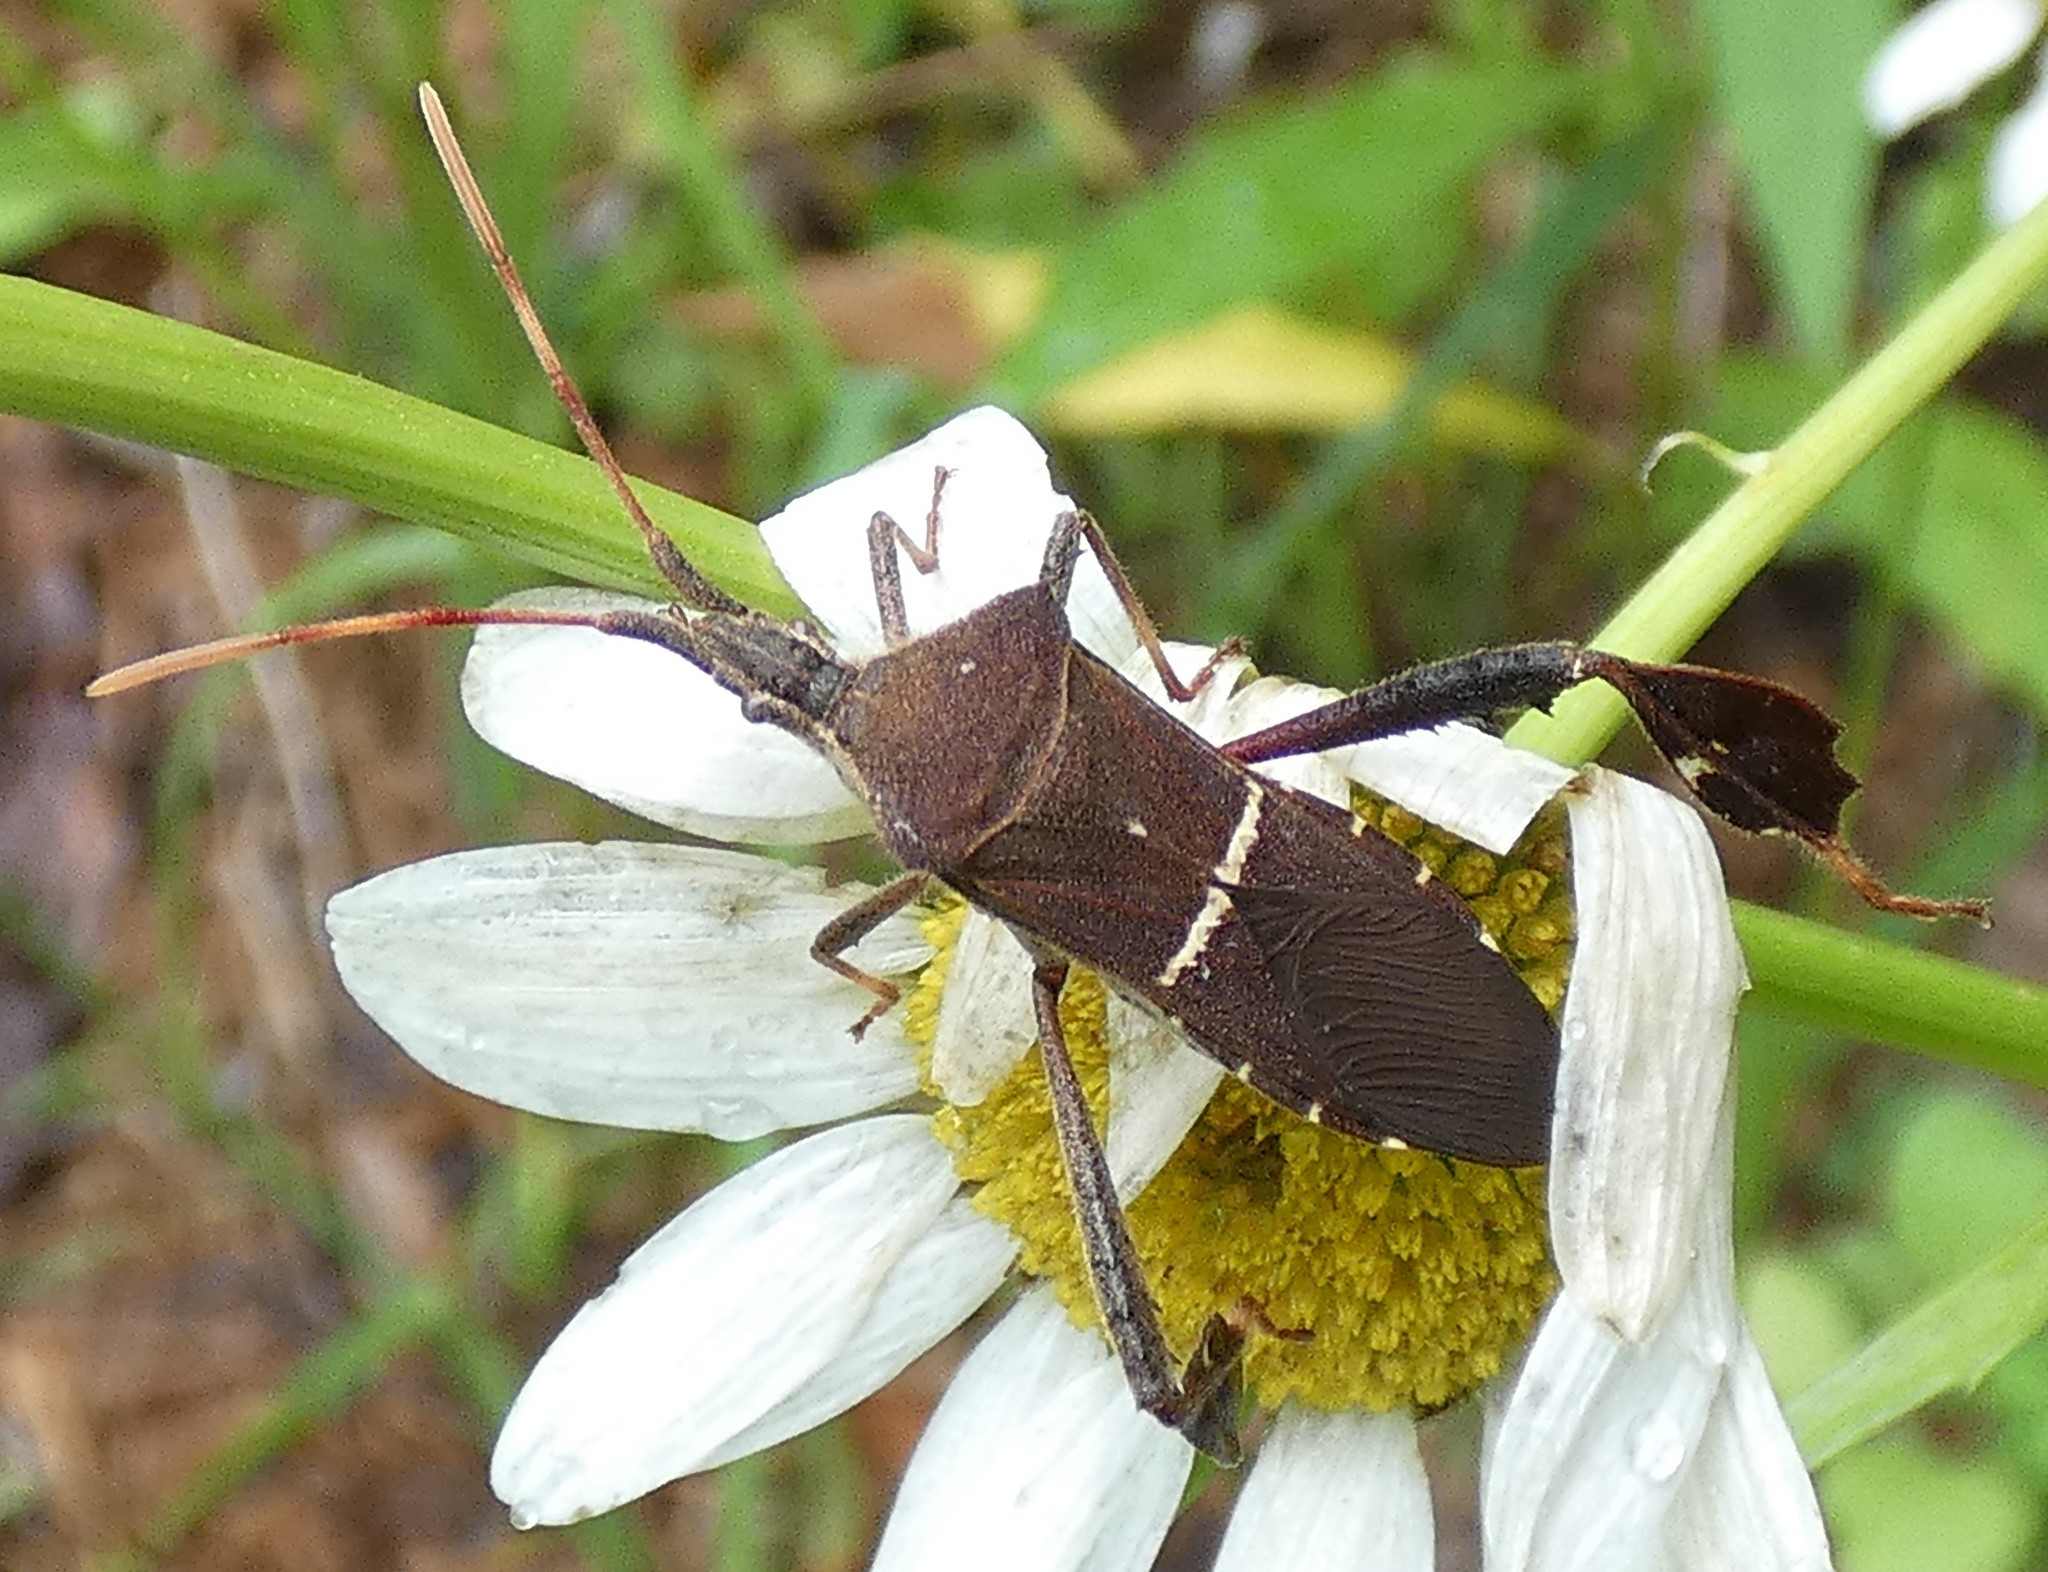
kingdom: Animalia
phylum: Arthropoda
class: Insecta
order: Hemiptera
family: Coreidae
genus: Leptoglossus
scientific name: Leptoglossus phyllopus
